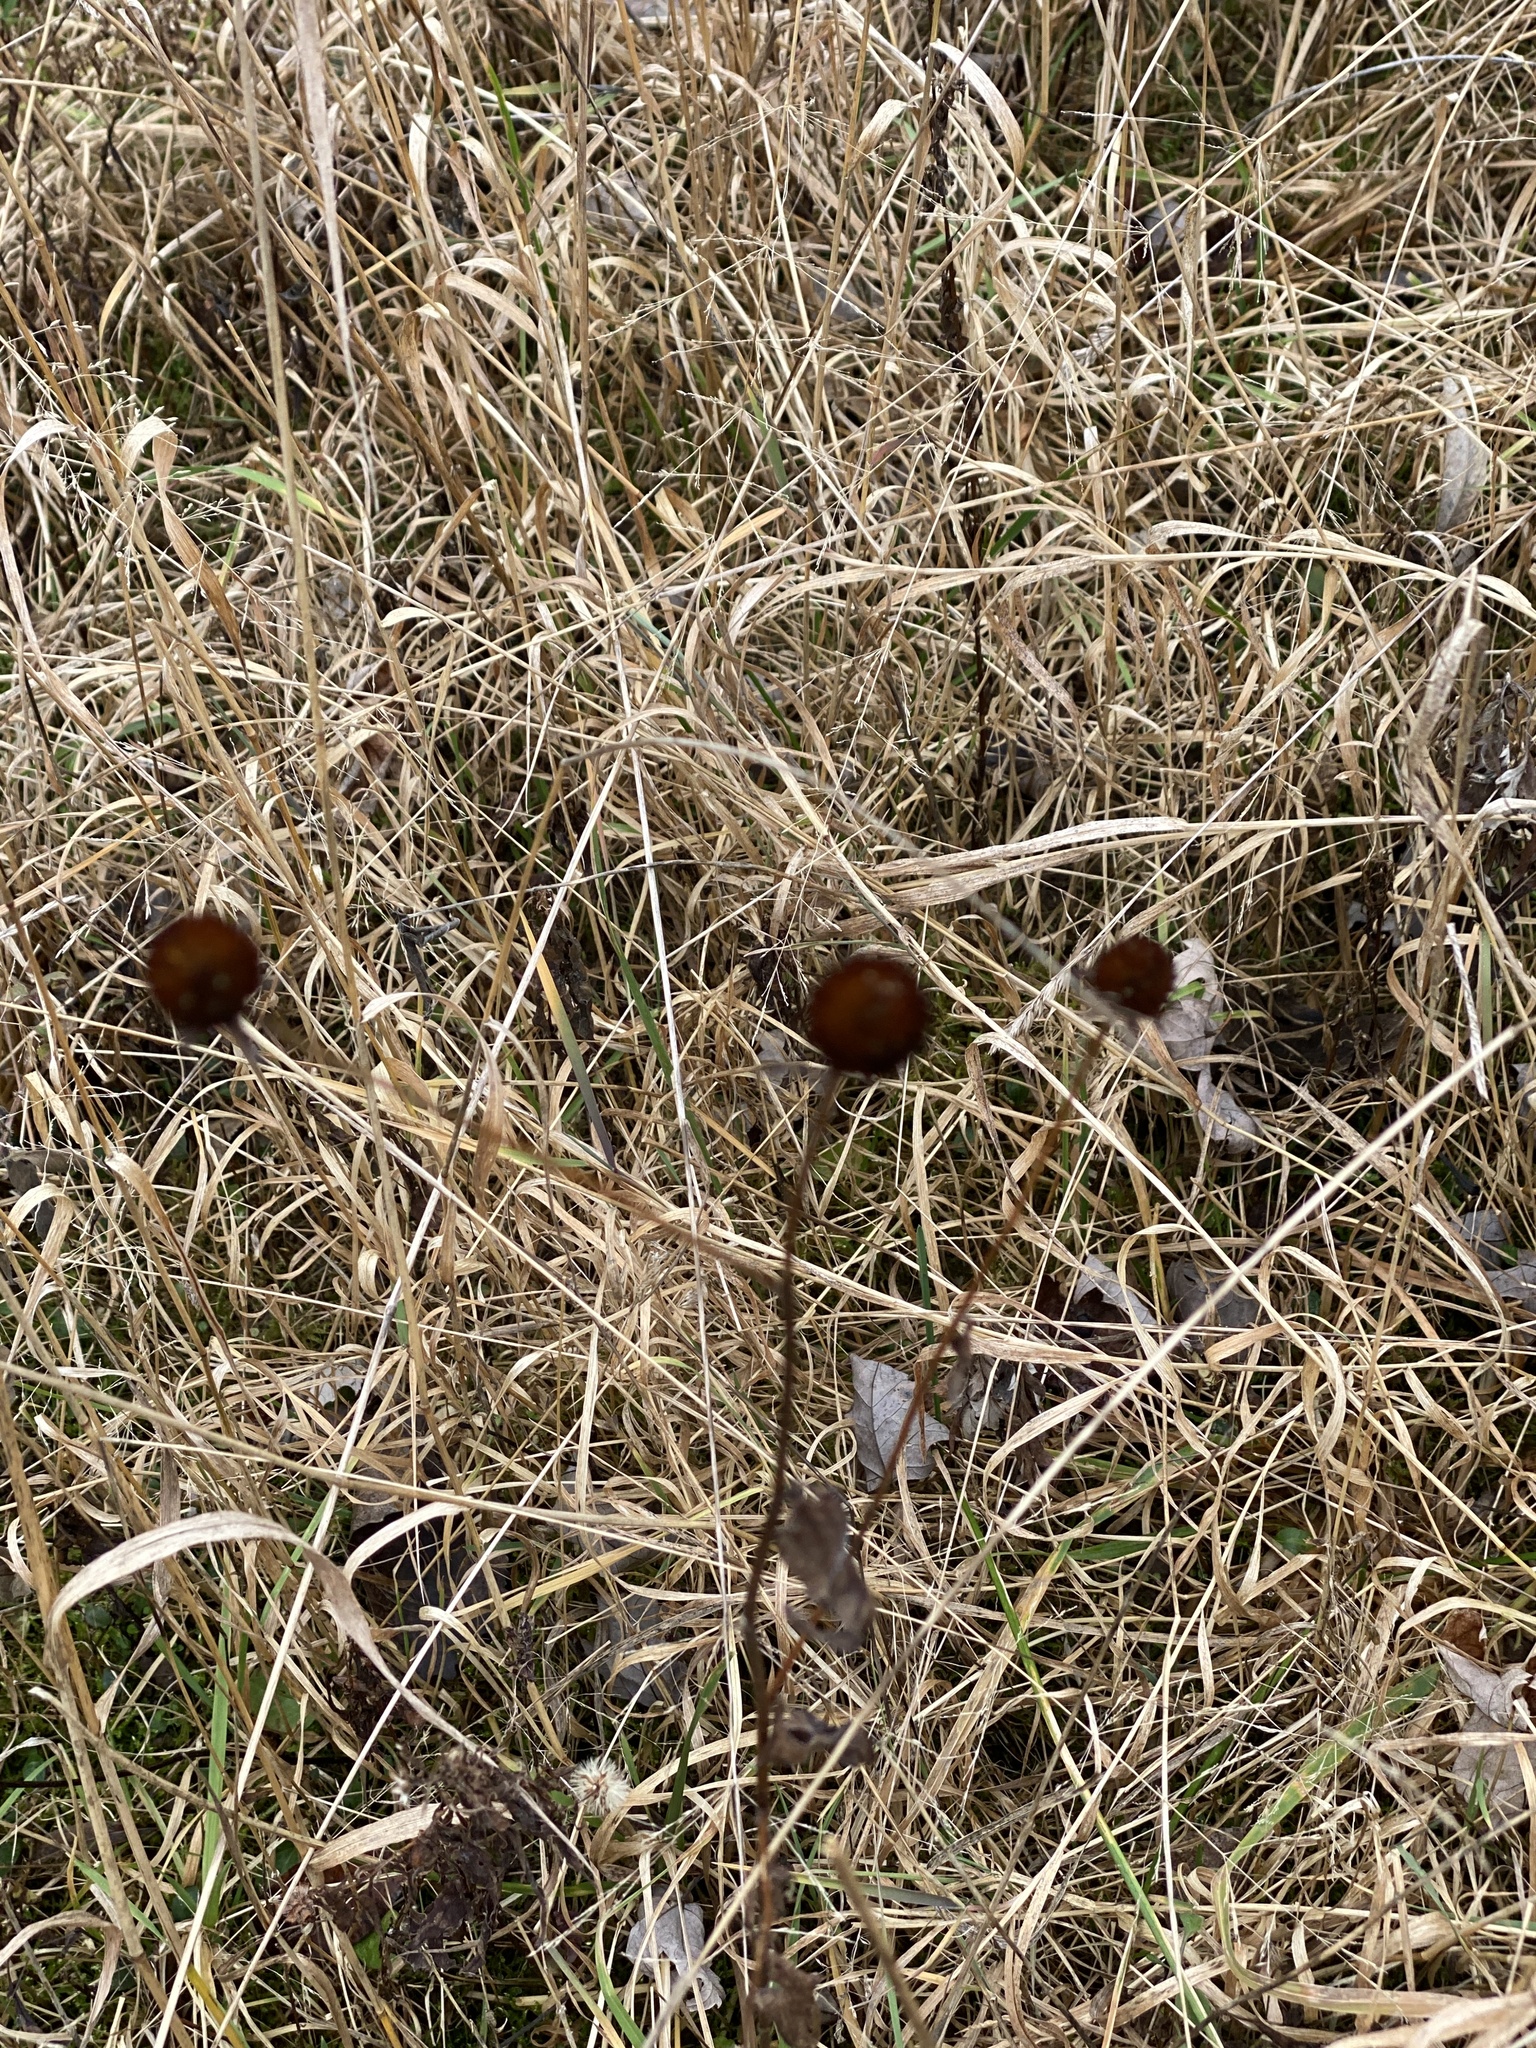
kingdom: Plantae
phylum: Tracheophyta
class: Magnoliopsida
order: Asterales
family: Asteraceae
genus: Rudbeckia
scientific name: Rudbeckia hirta
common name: Black-eyed-susan
